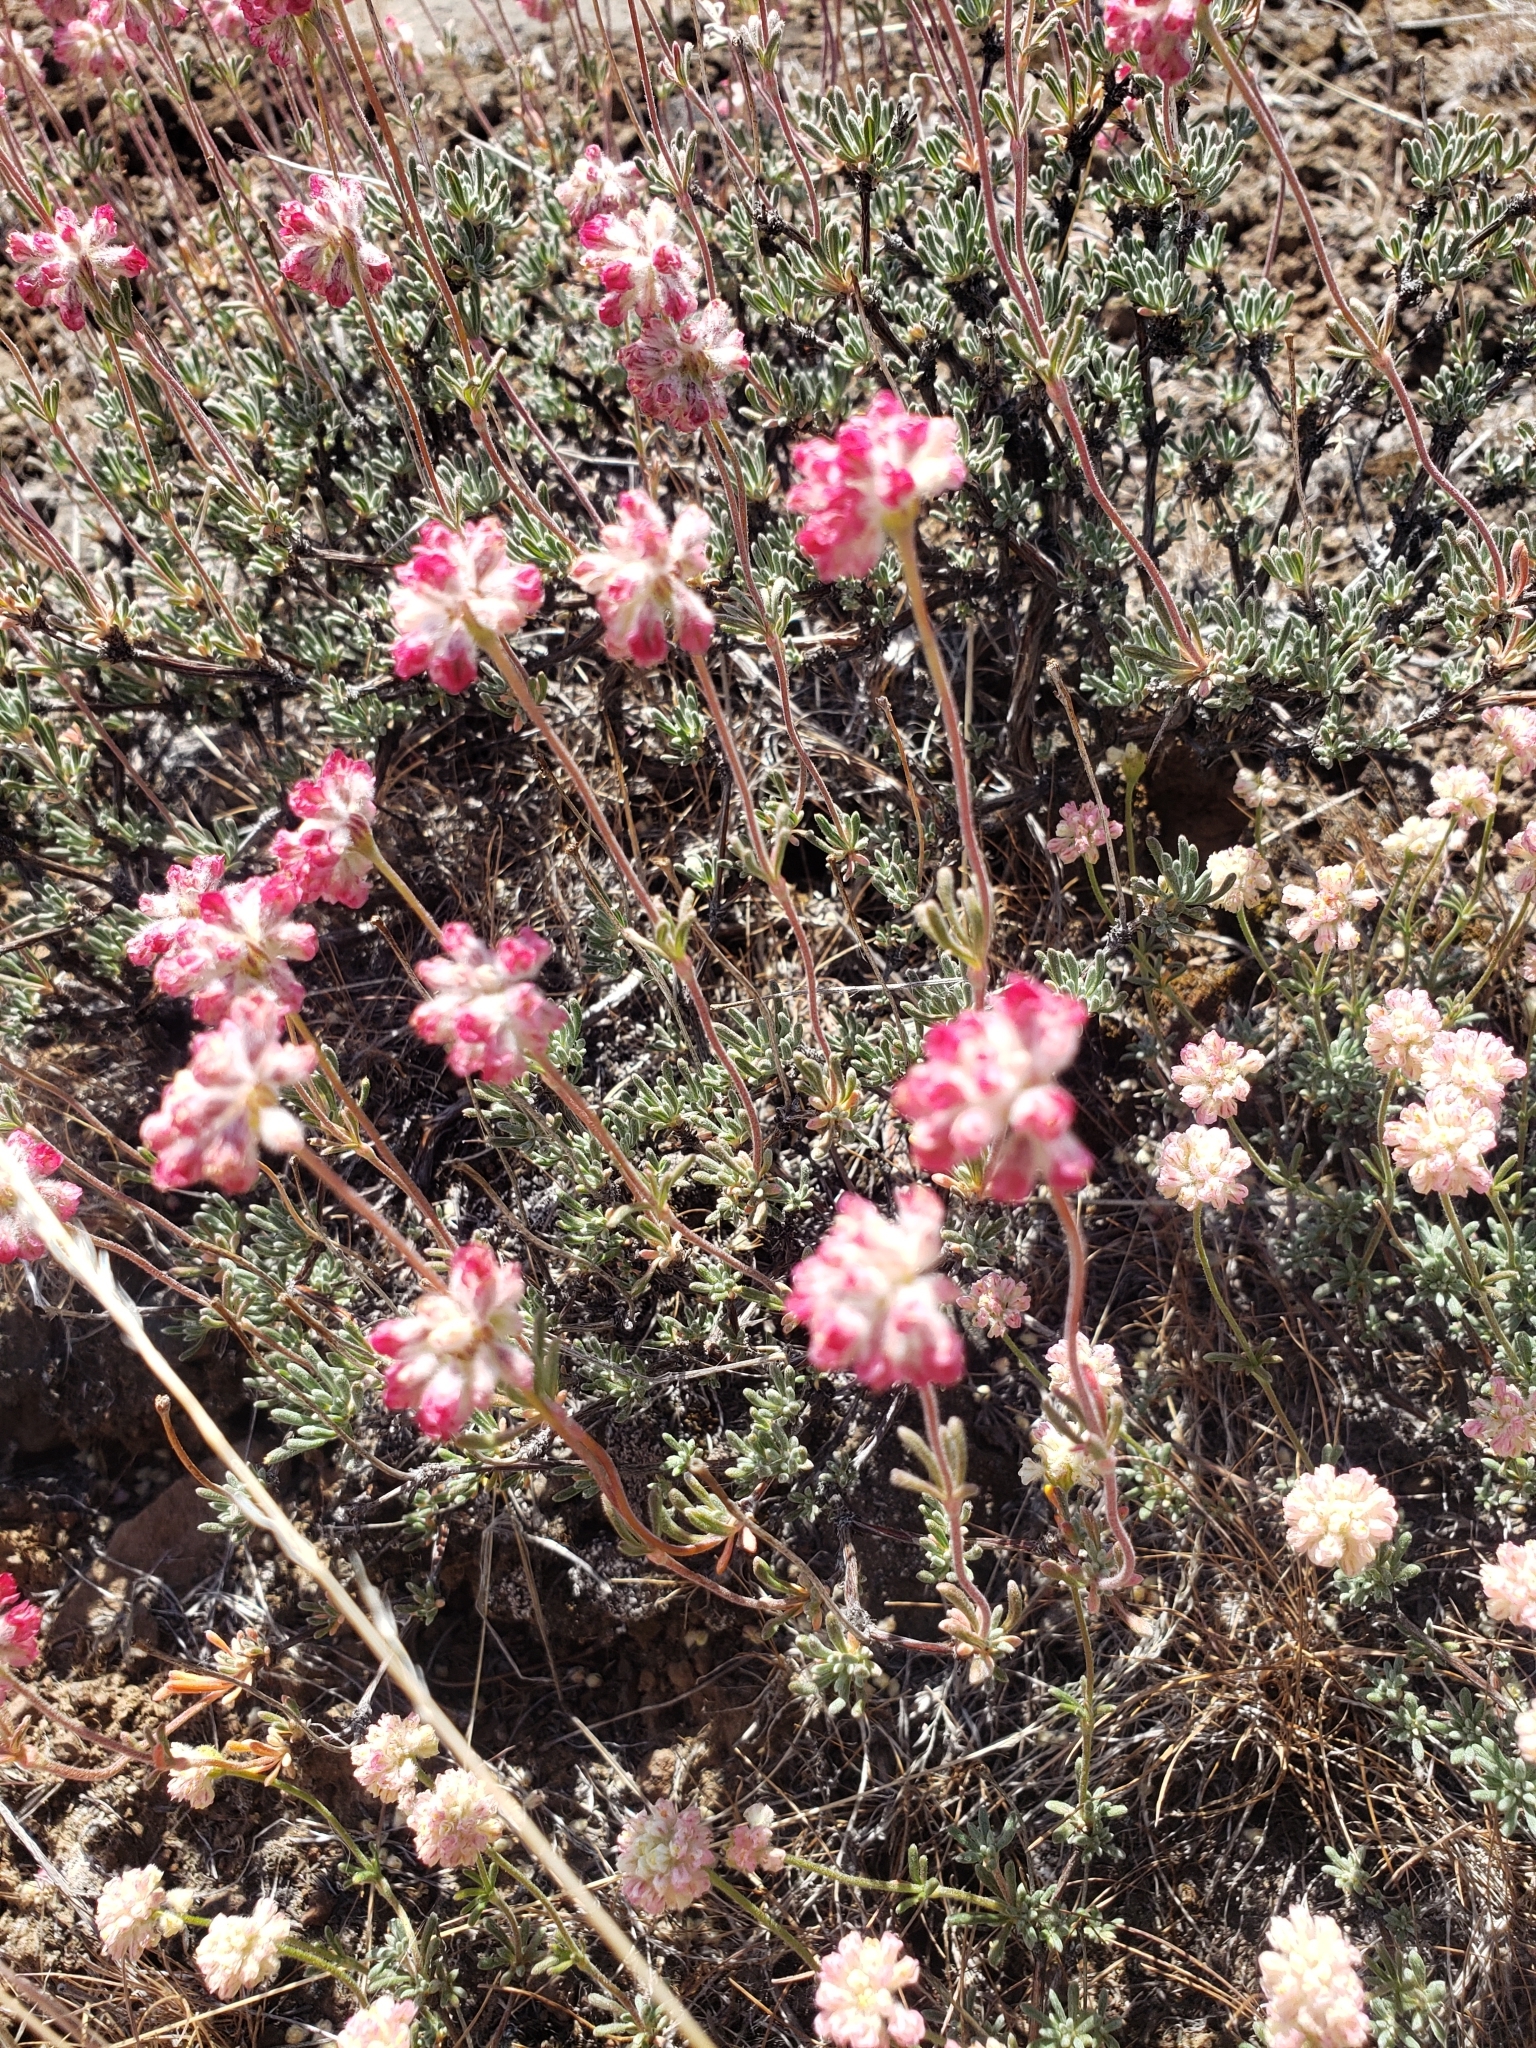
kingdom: Plantae
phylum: Tracheophyta
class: Magnoliopsida
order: Caryophyllales
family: Polygonaceae
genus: Eriogonum
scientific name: Eriogonum thymoides
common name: Thyme-leaf wild buckwheat
